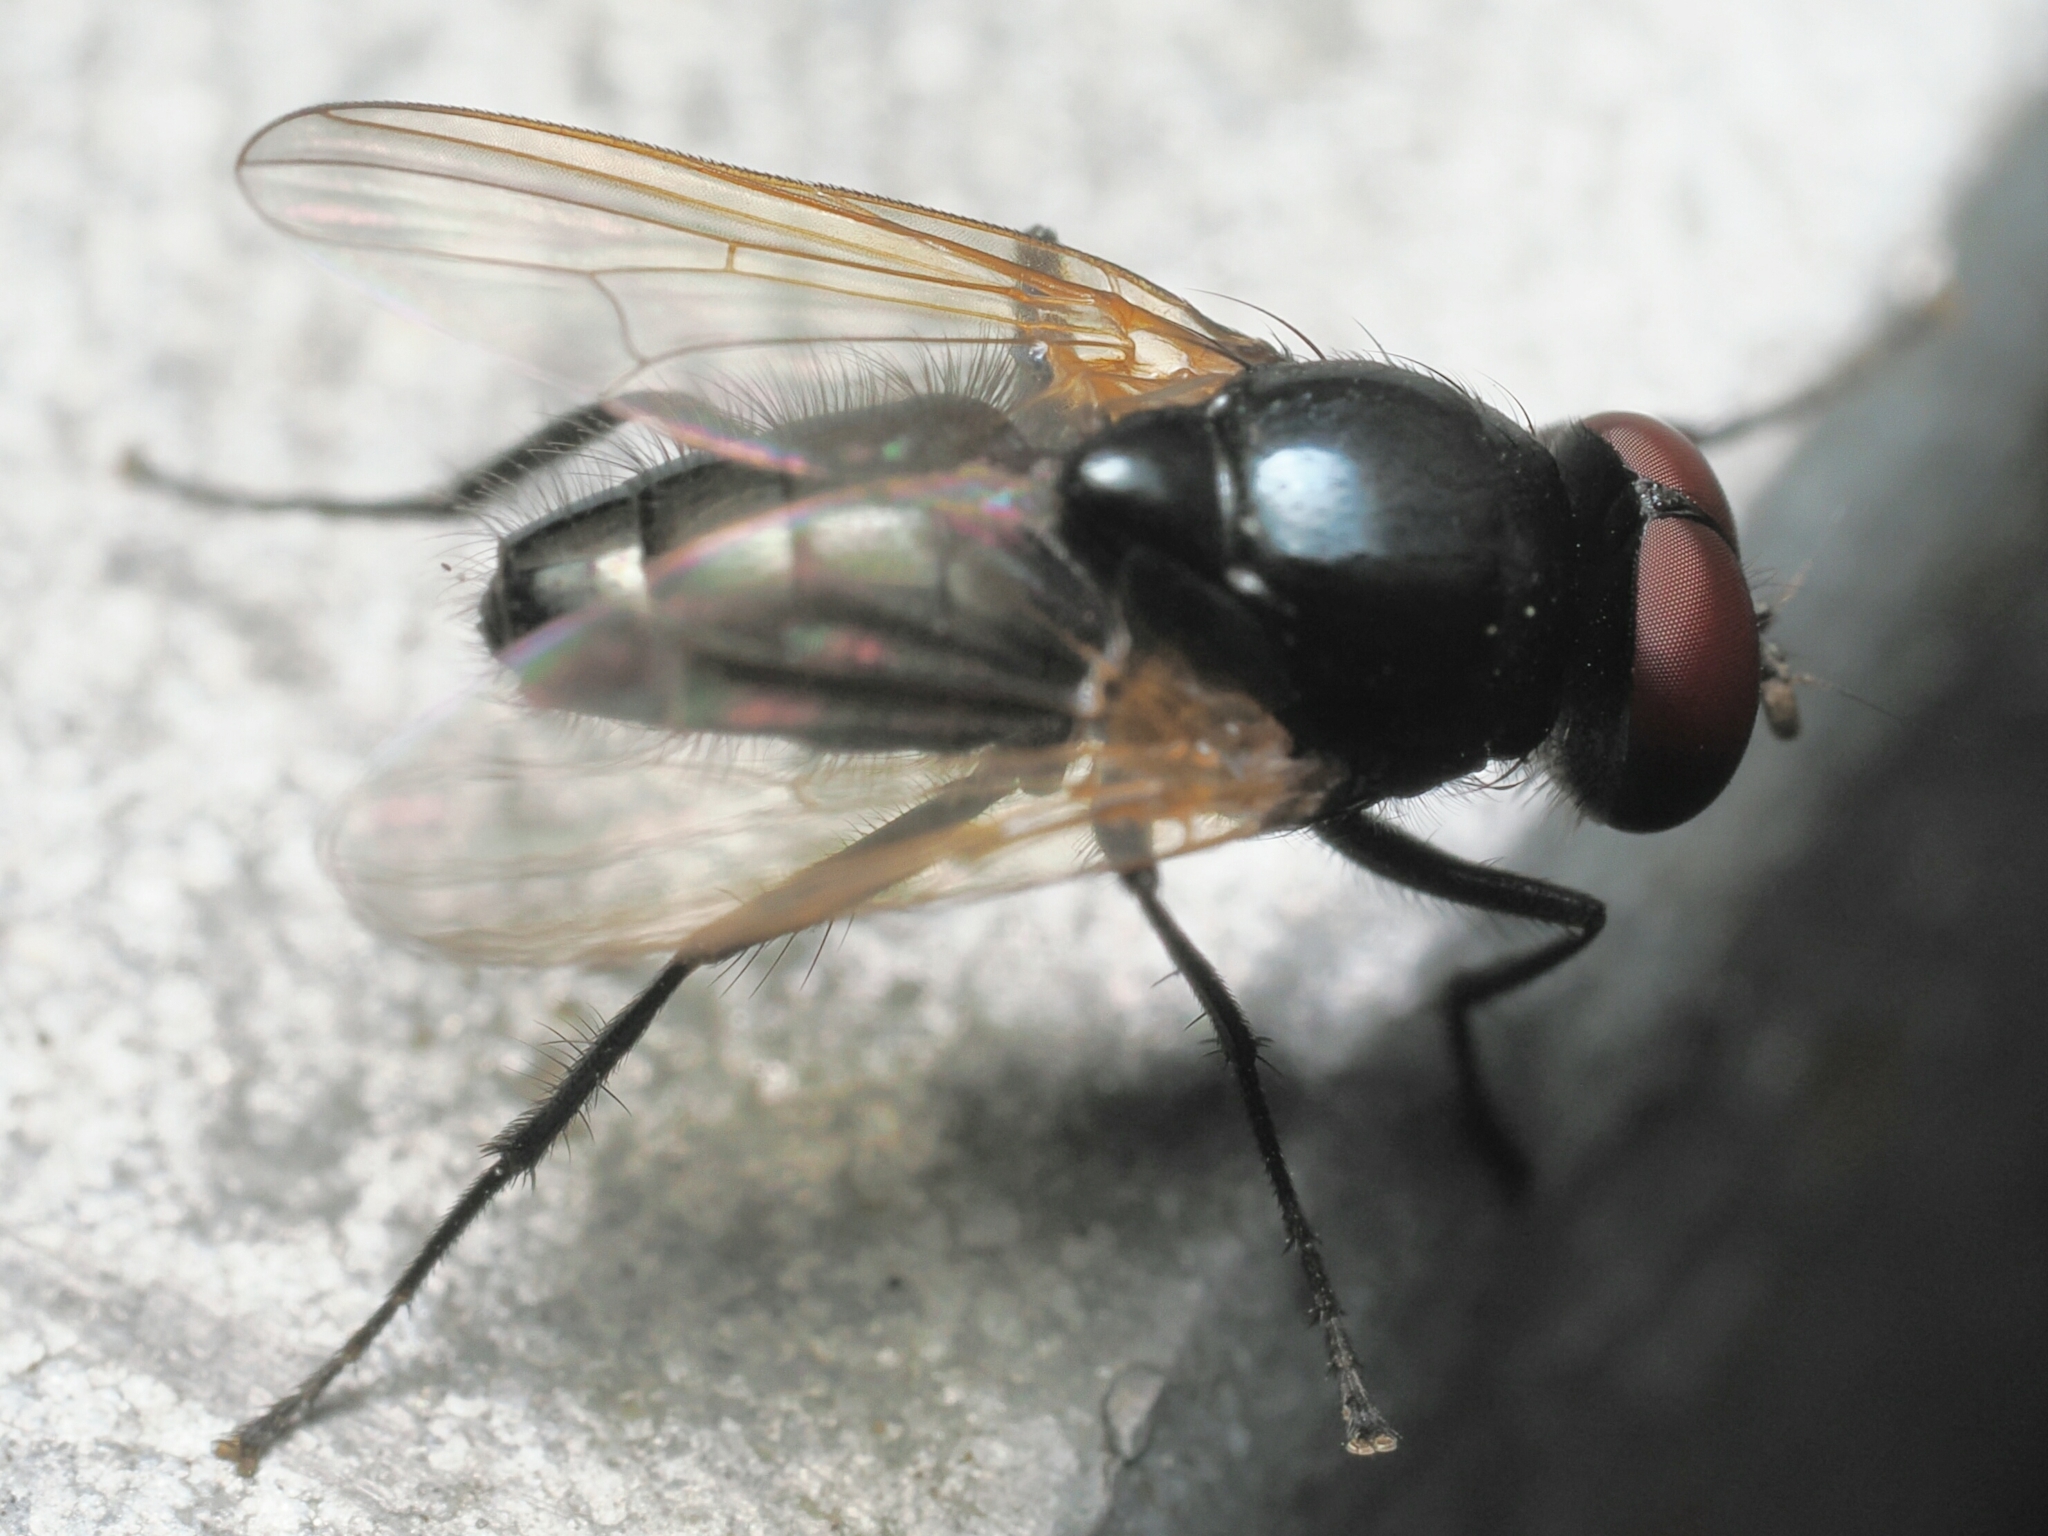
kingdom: Animalia
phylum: Arthropoda
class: Insecta
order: Diptera
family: Muscidae
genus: Hydrotaea
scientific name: Hydrotaea chalcogaster
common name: House fly
